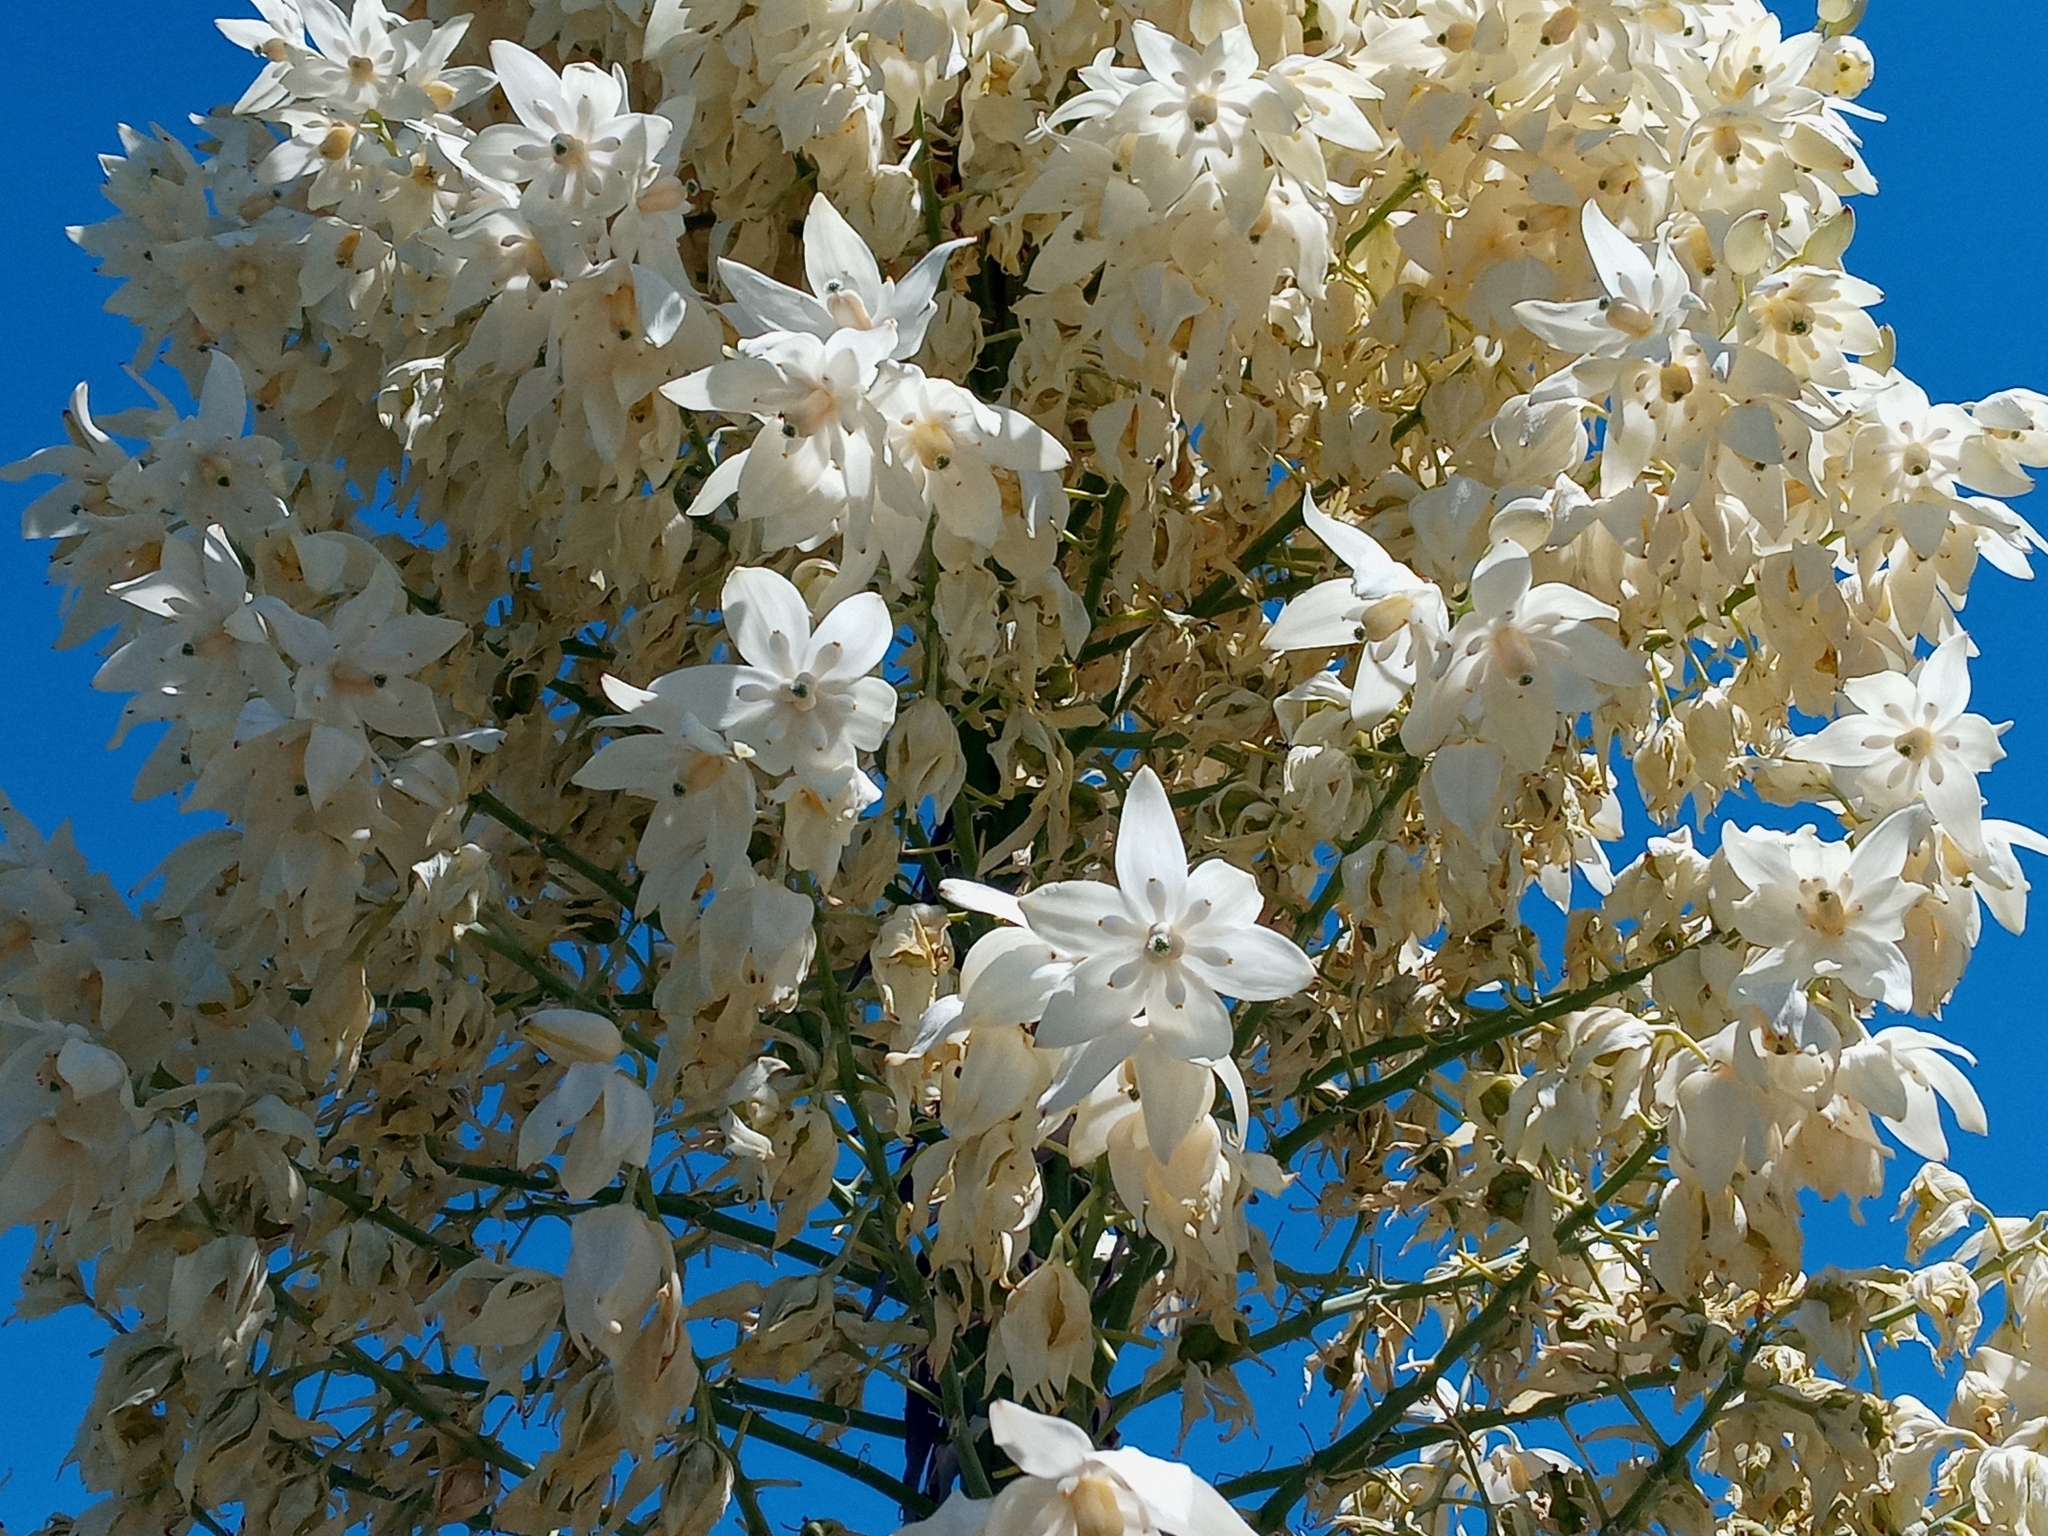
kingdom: Plantae
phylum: Tracheophyta
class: Liliopsida
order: Asparagales
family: Asparagaceae
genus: Hesperoyucca
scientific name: Hesperoyucca whipplei
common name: Our lord's-candle
